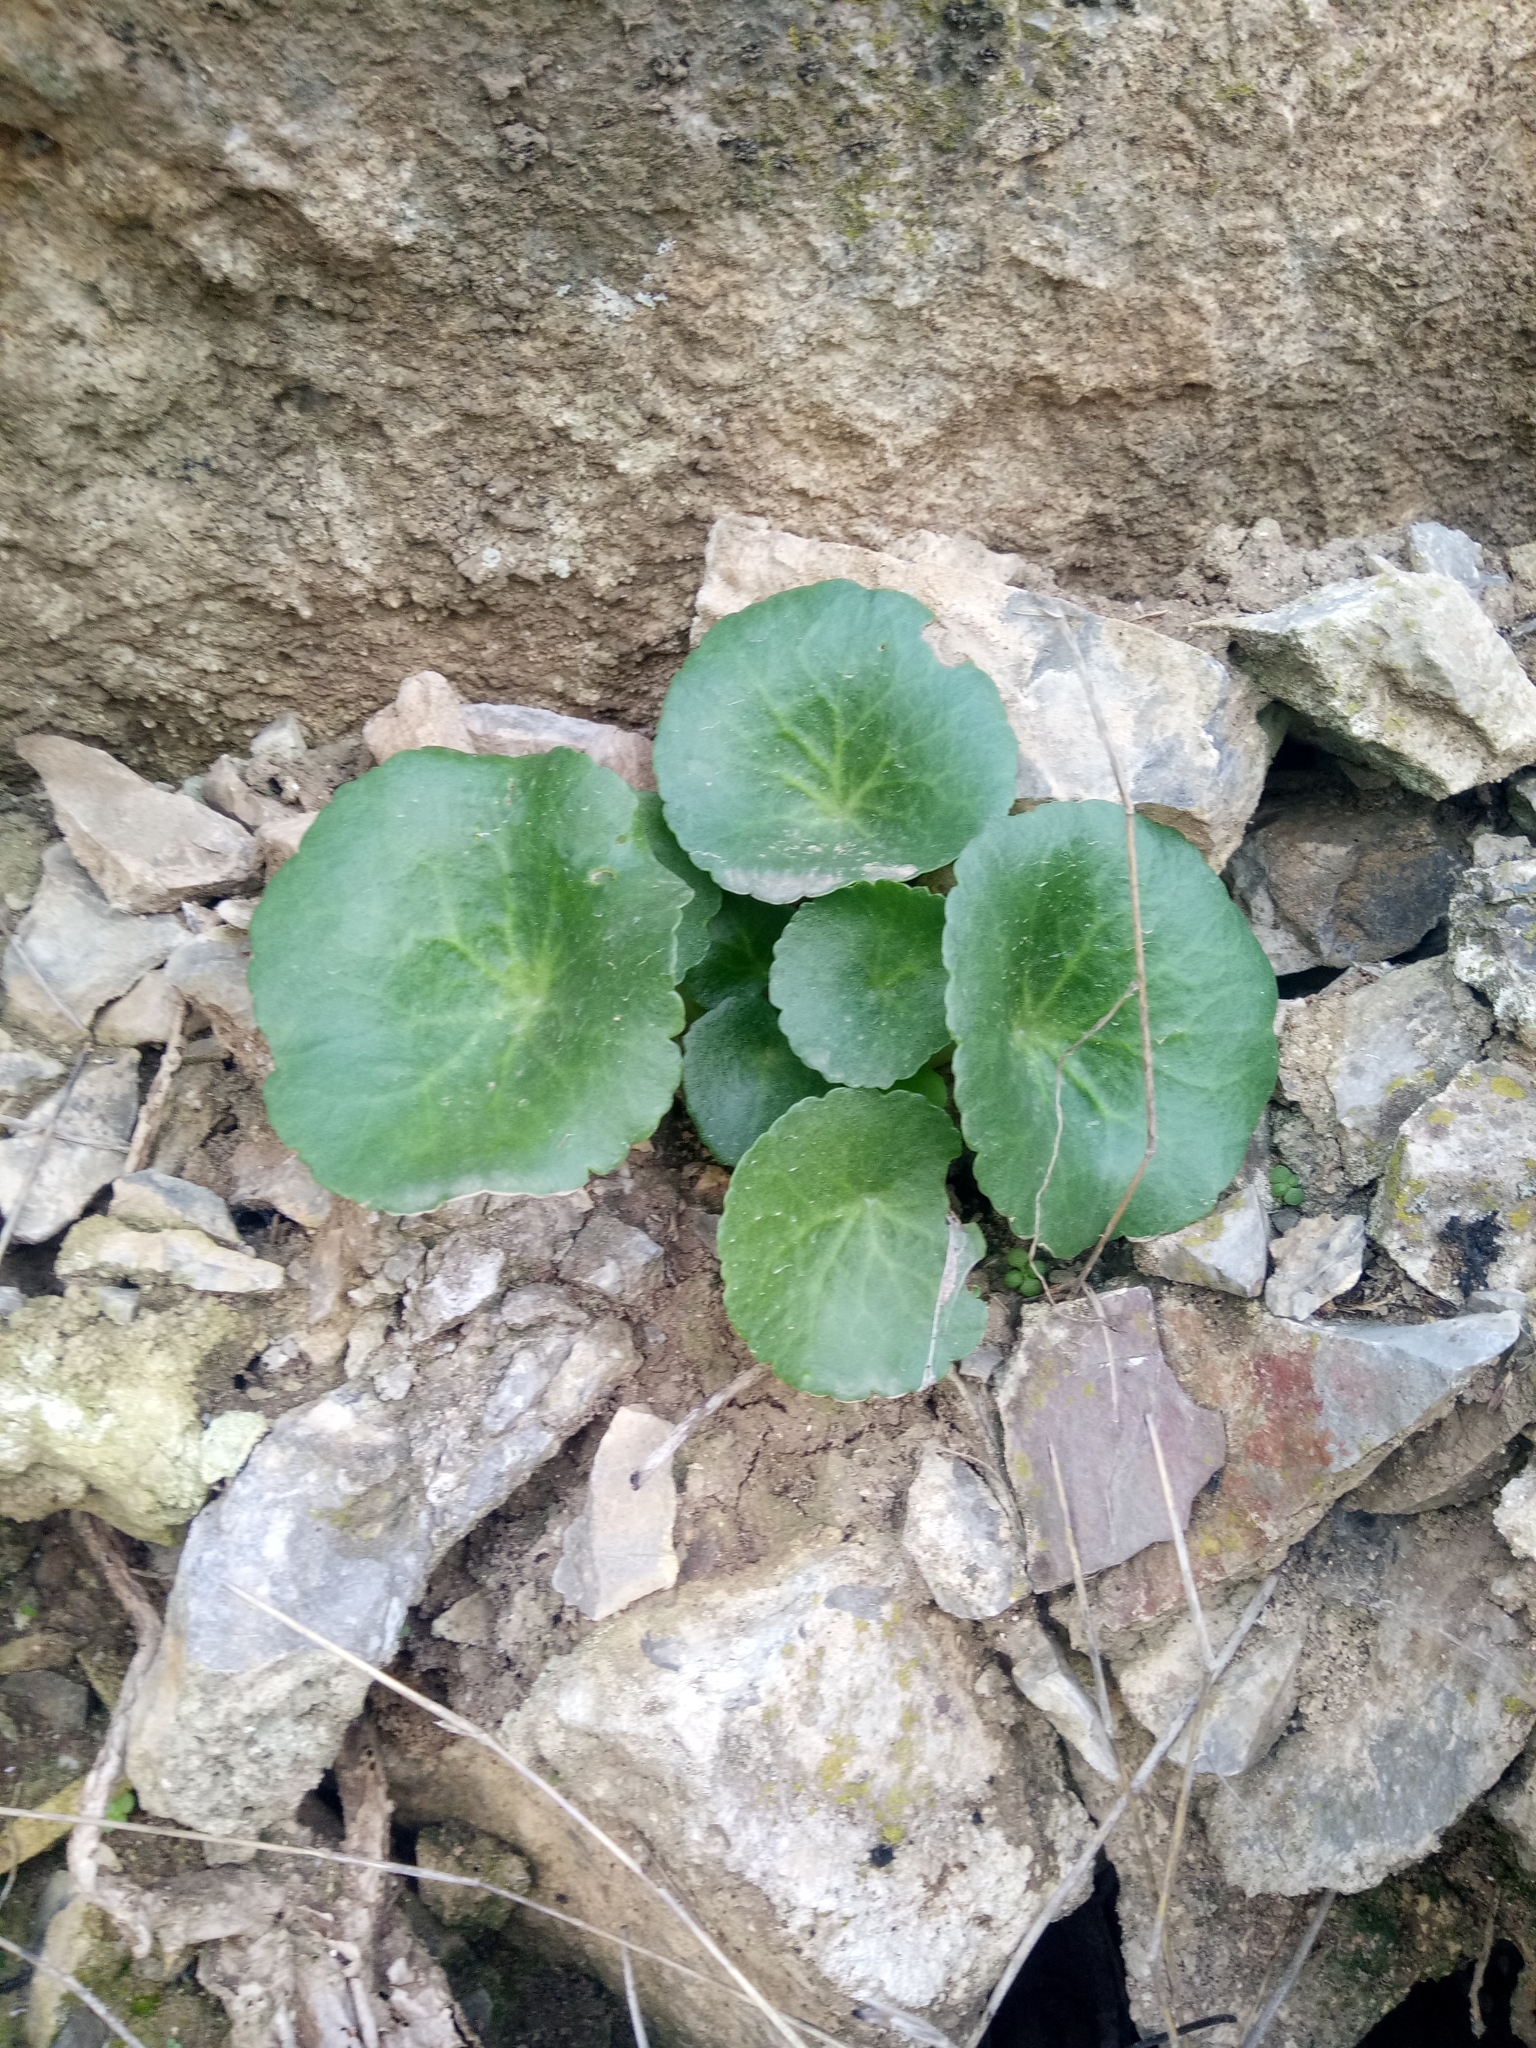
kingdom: Plantae
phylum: Tracheophyta
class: Magnoliopsida
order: Saxifragales
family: Crassulaceae
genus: Umbilicus
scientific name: Umbilicus rupestris
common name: Navelwort
